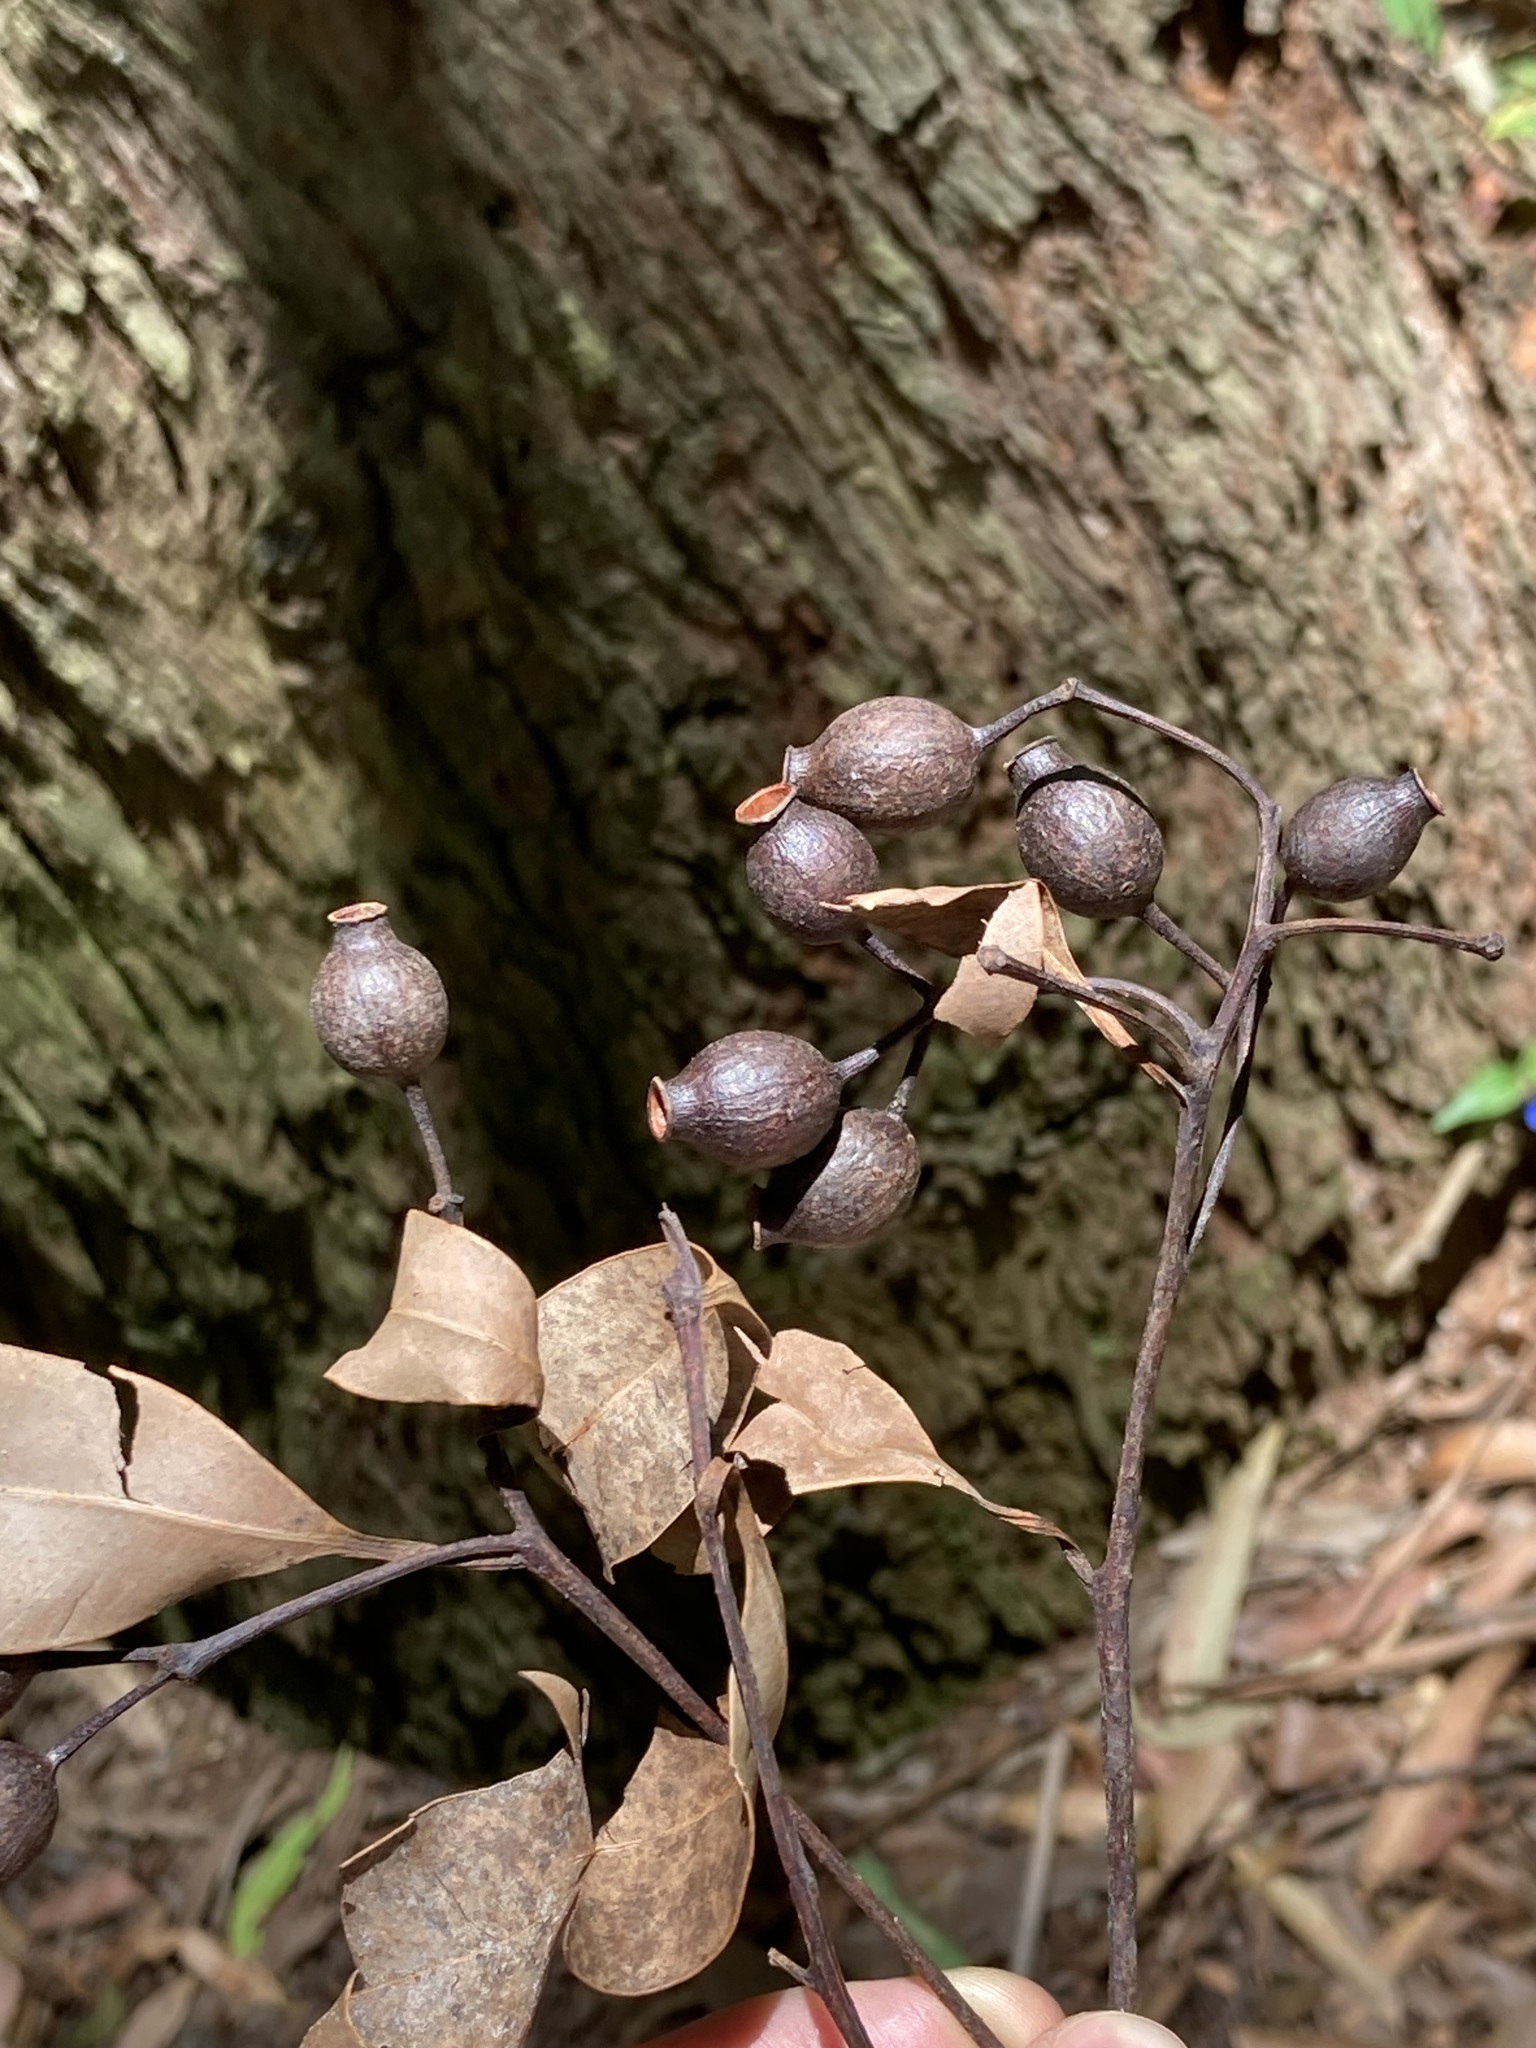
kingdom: Plantae
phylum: Tracheophyta
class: Magnoliopsida
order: Myrtales
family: Myrtaceae
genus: Corymbia
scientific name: Corymbia gummifera
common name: Red bloodwood
